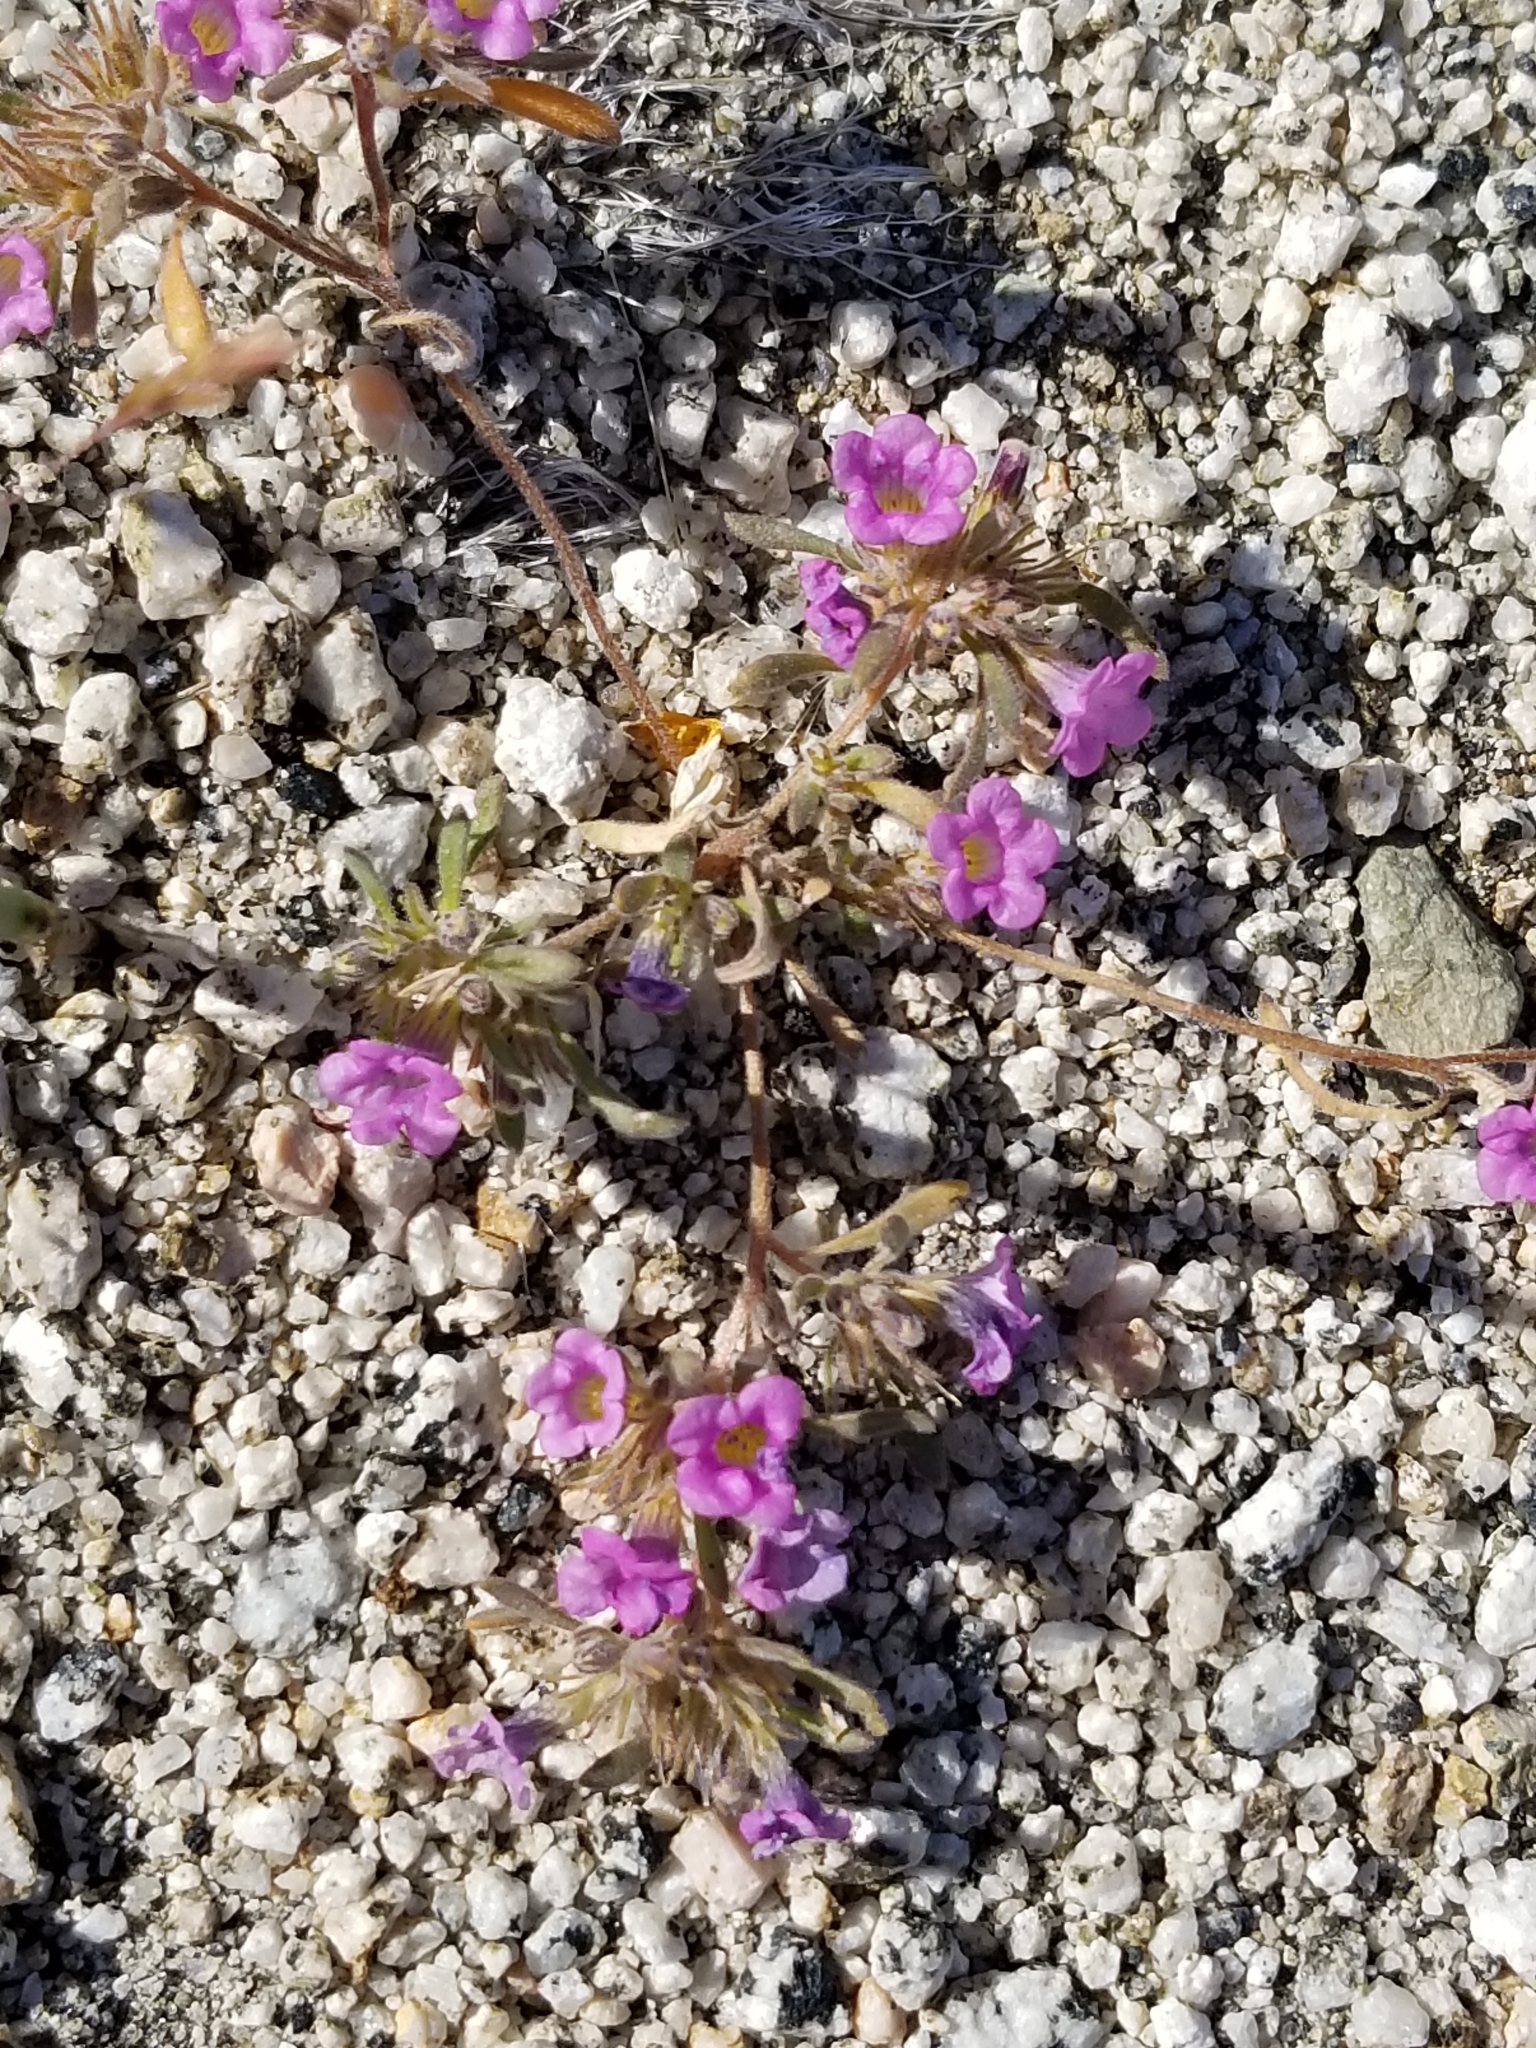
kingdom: Plantae
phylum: Tracheophyta
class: Magnoliopsida
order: Boraginales
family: Namaceae
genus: Nama
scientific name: Nama demissa
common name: Leafy nama
